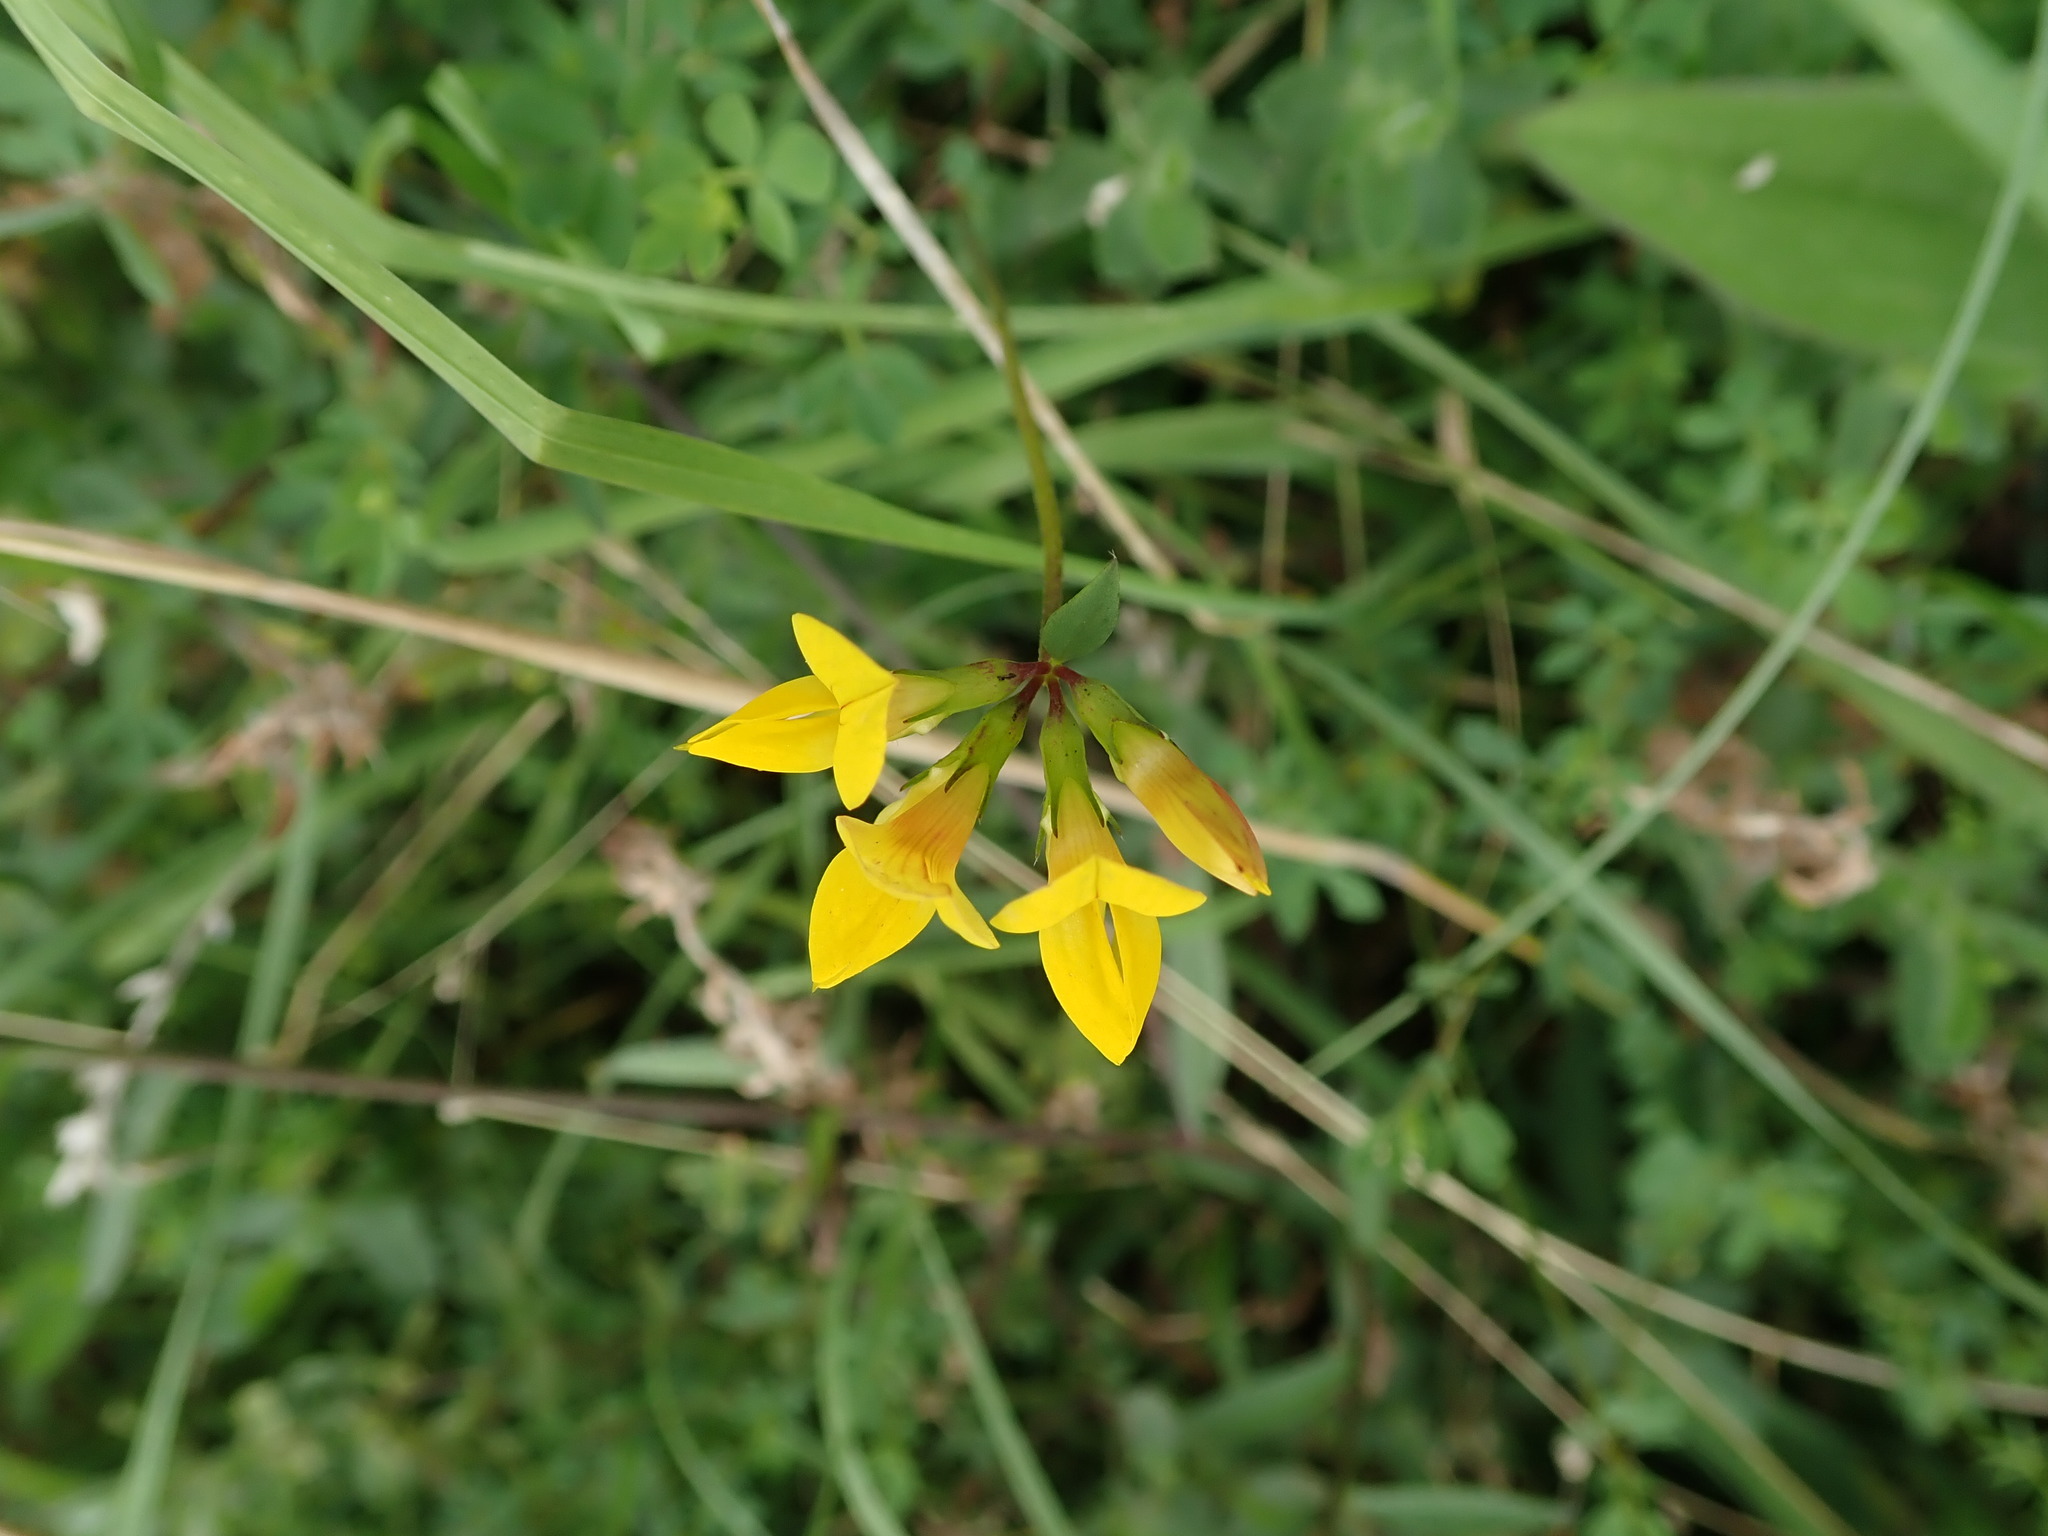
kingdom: Plantae
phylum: Tracheophyta
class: Magnoliopsida
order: Fabales
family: Fabaceae
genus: Lotus
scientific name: Lotus corniculatus
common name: Common bird's-foot-trefoil
